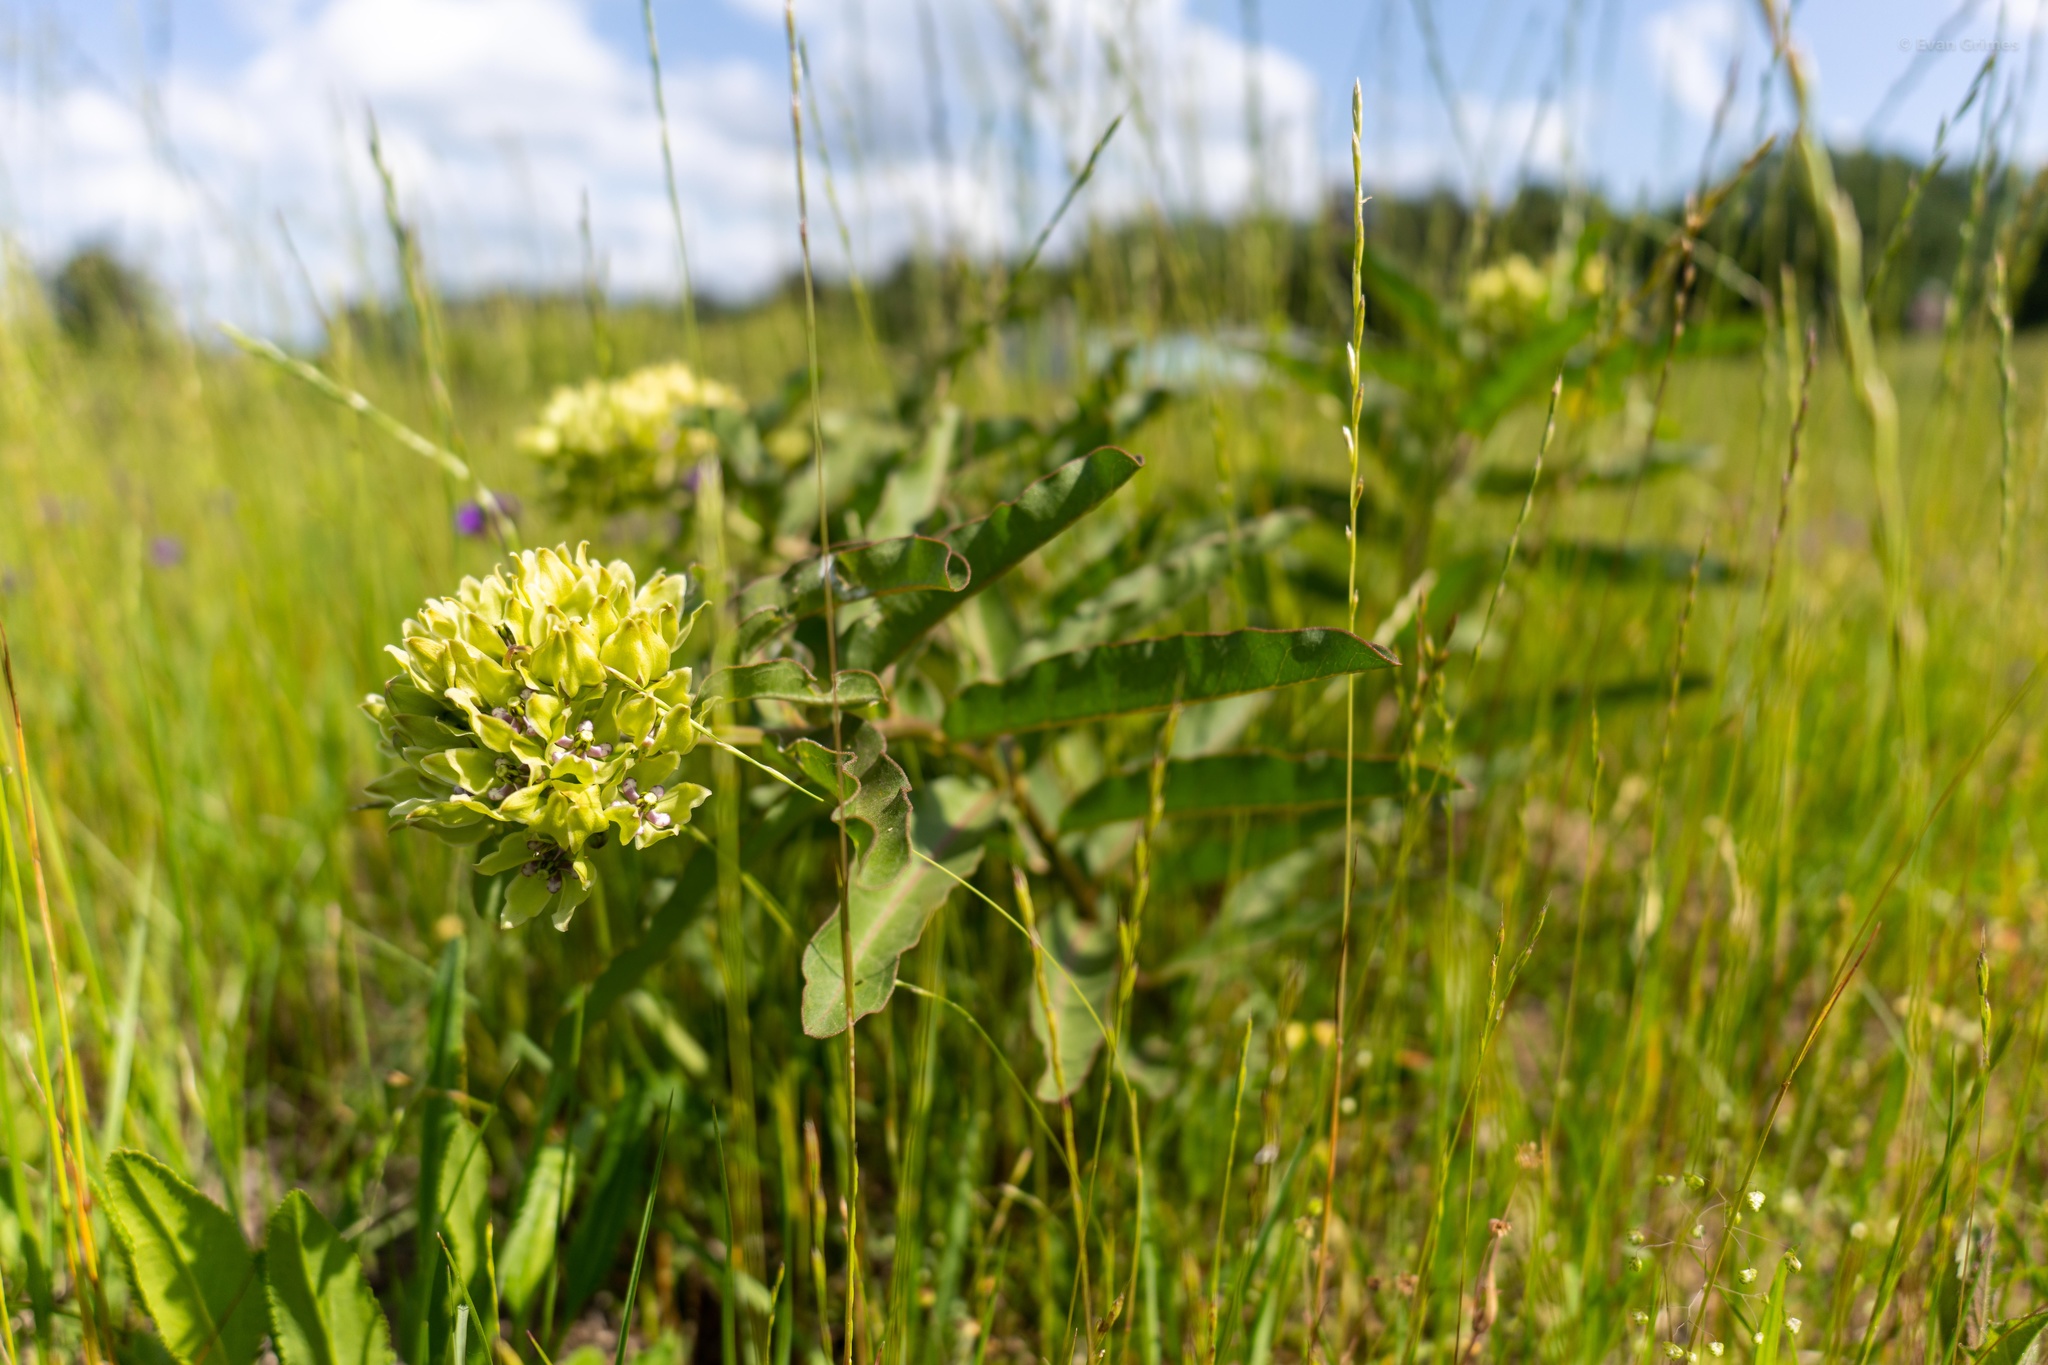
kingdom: Plantae
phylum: Tracheophyta
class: Magnoliopsida
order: Gentianales
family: Apocynaceae
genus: Asclepias
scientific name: Asclepias viridis
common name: Antelope-horns
